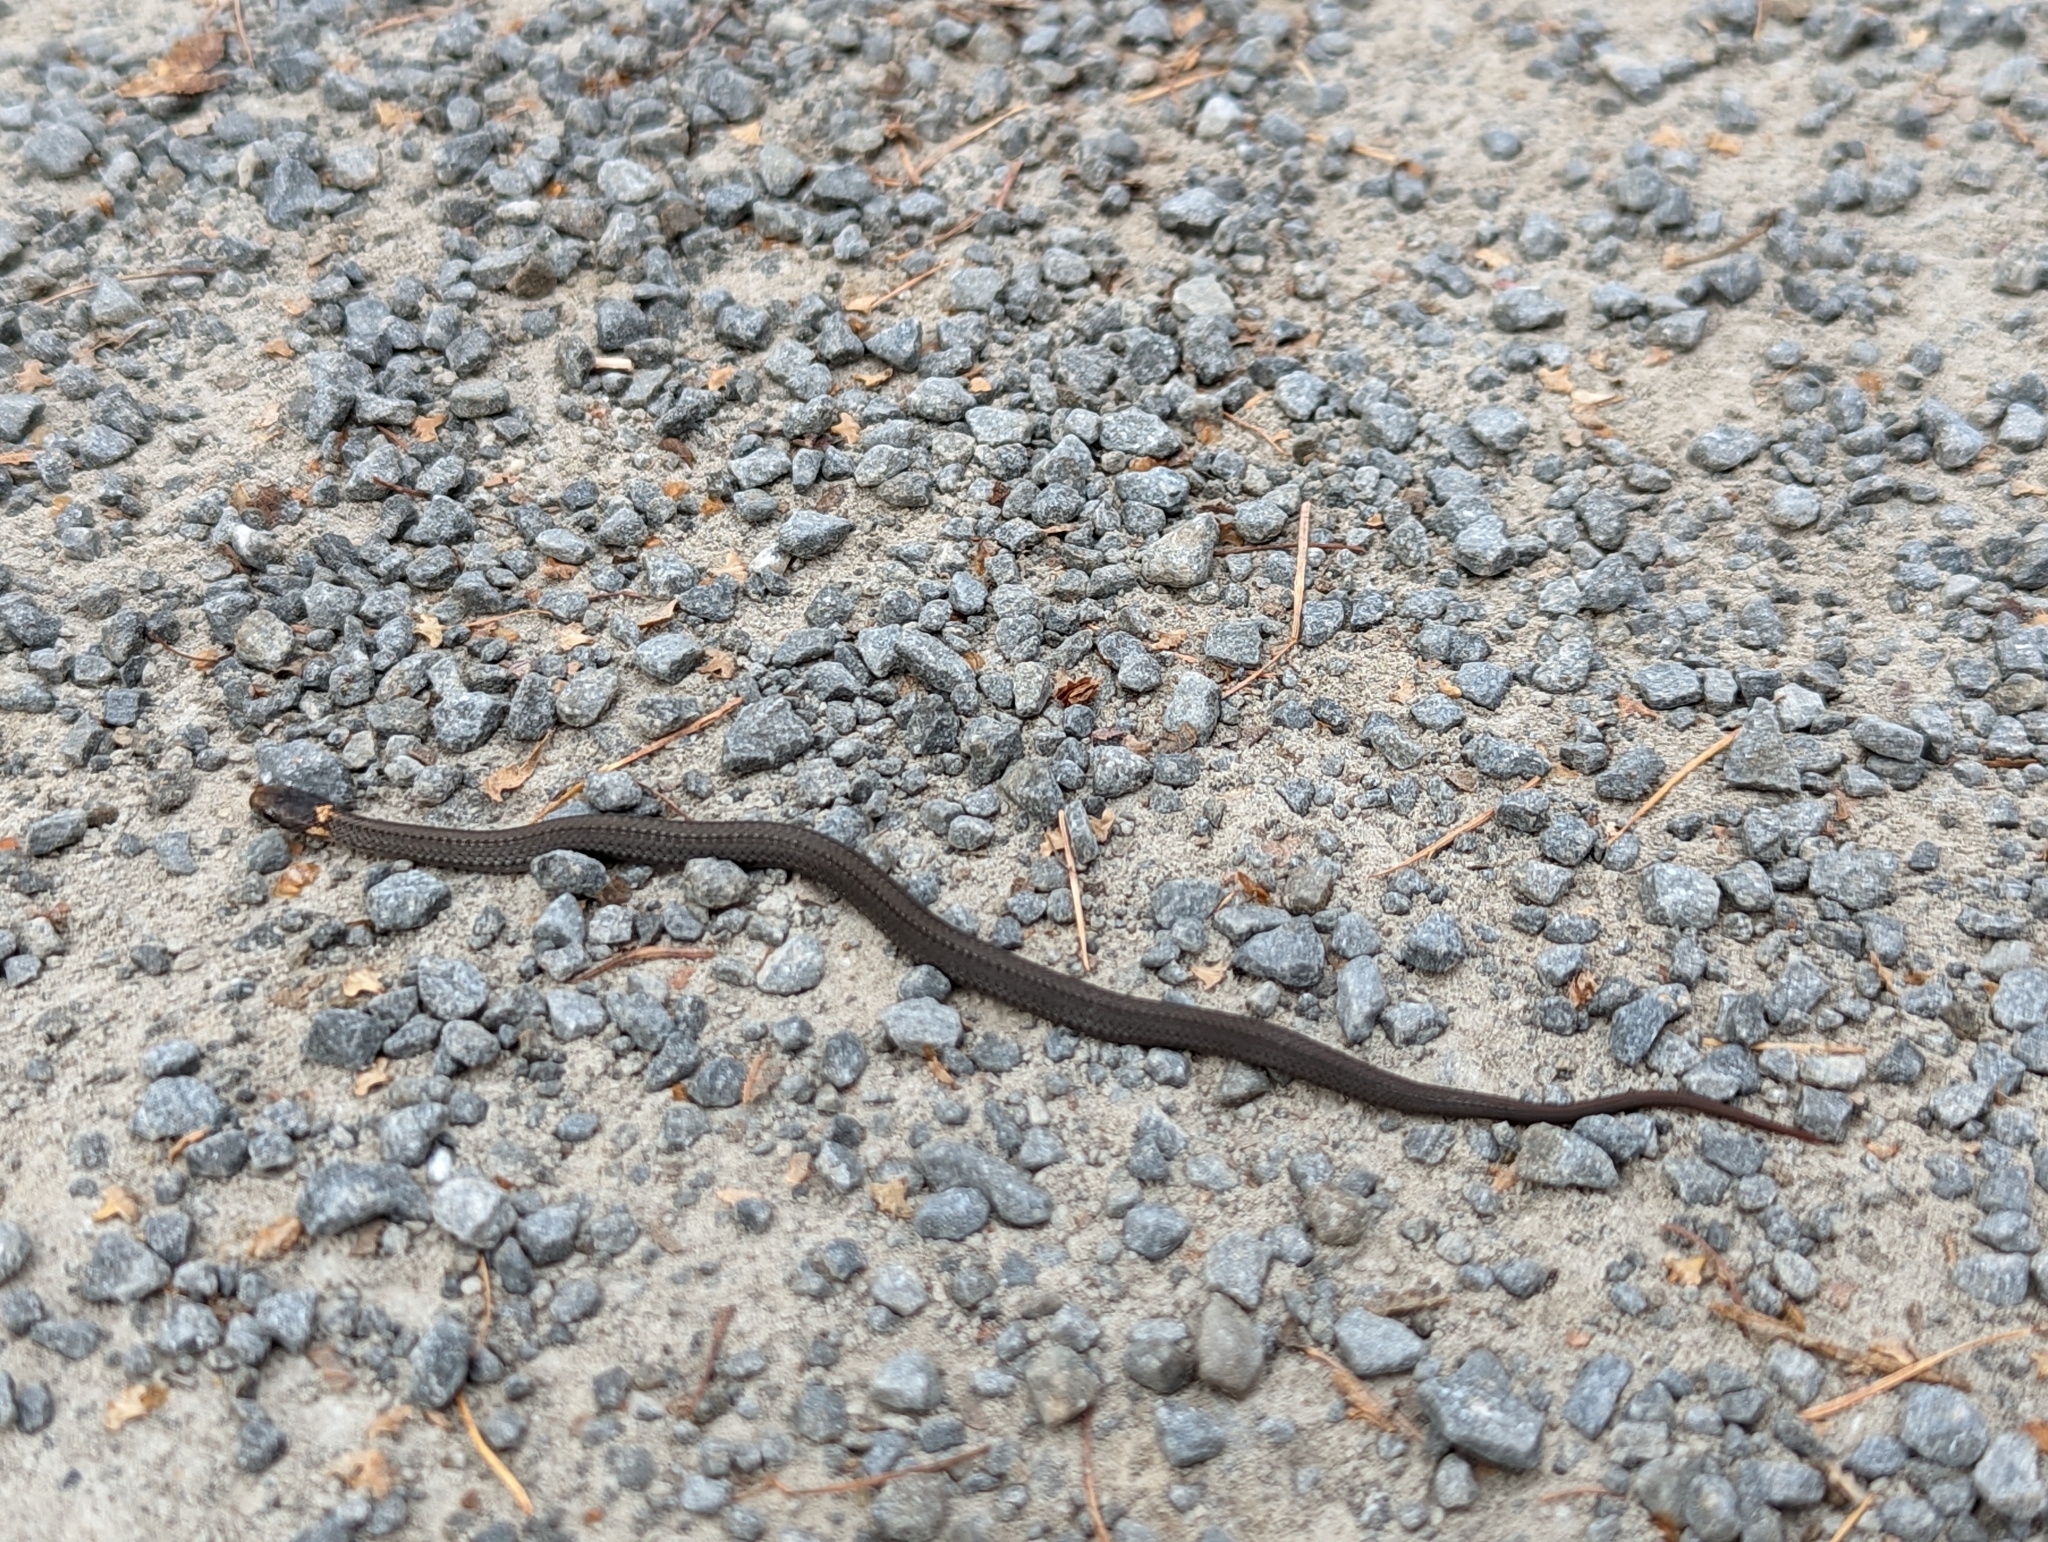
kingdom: Animalia
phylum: Chordata
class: Squamata
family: Colubridae
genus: Storeria
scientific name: Storeria occipitomaculata
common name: Redbelly snake
